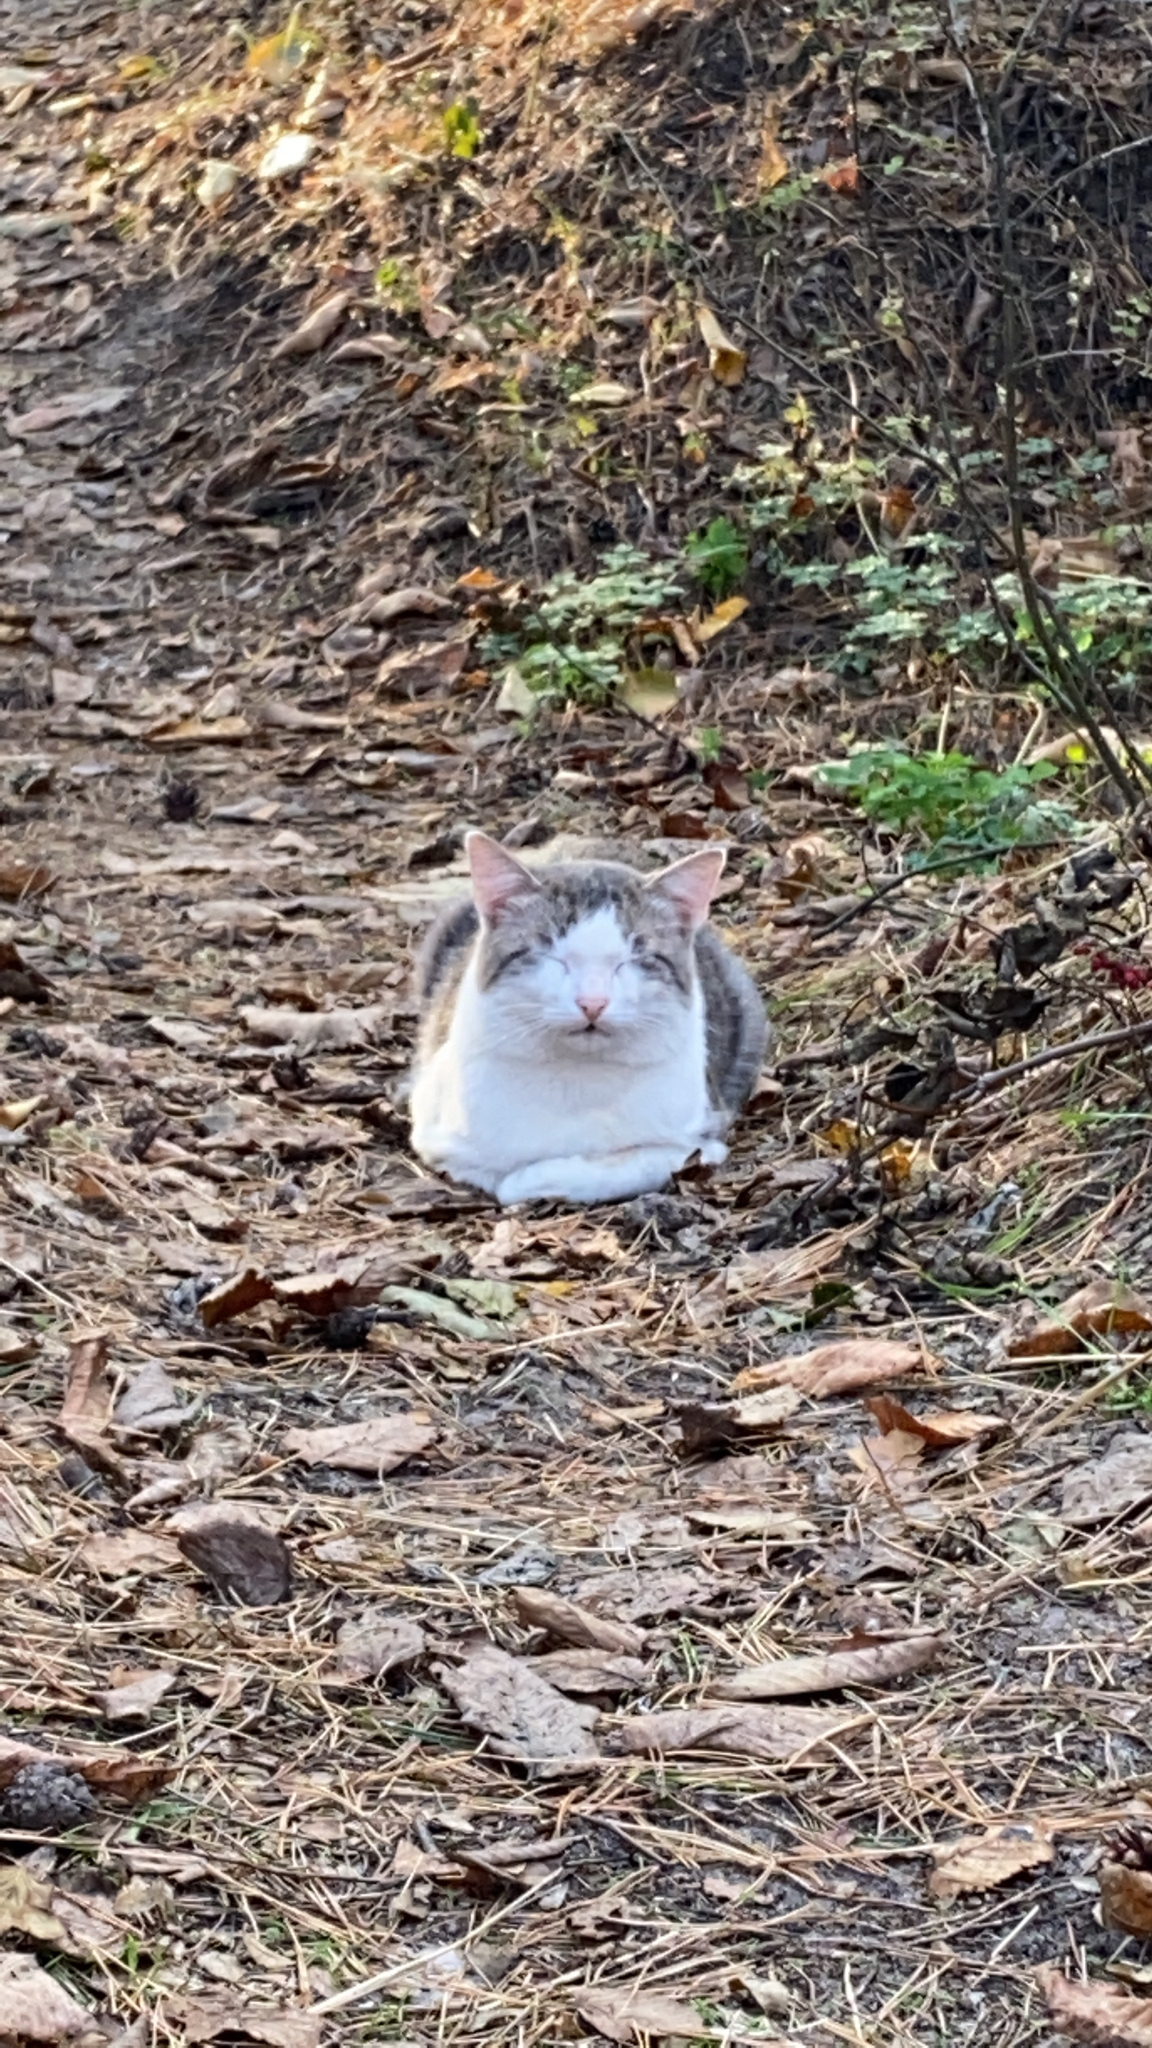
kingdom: Animalia
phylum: Chordata
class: Mammalia
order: Carnivora
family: Felidae
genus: Felis
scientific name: Felis catus
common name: Domestic cat
